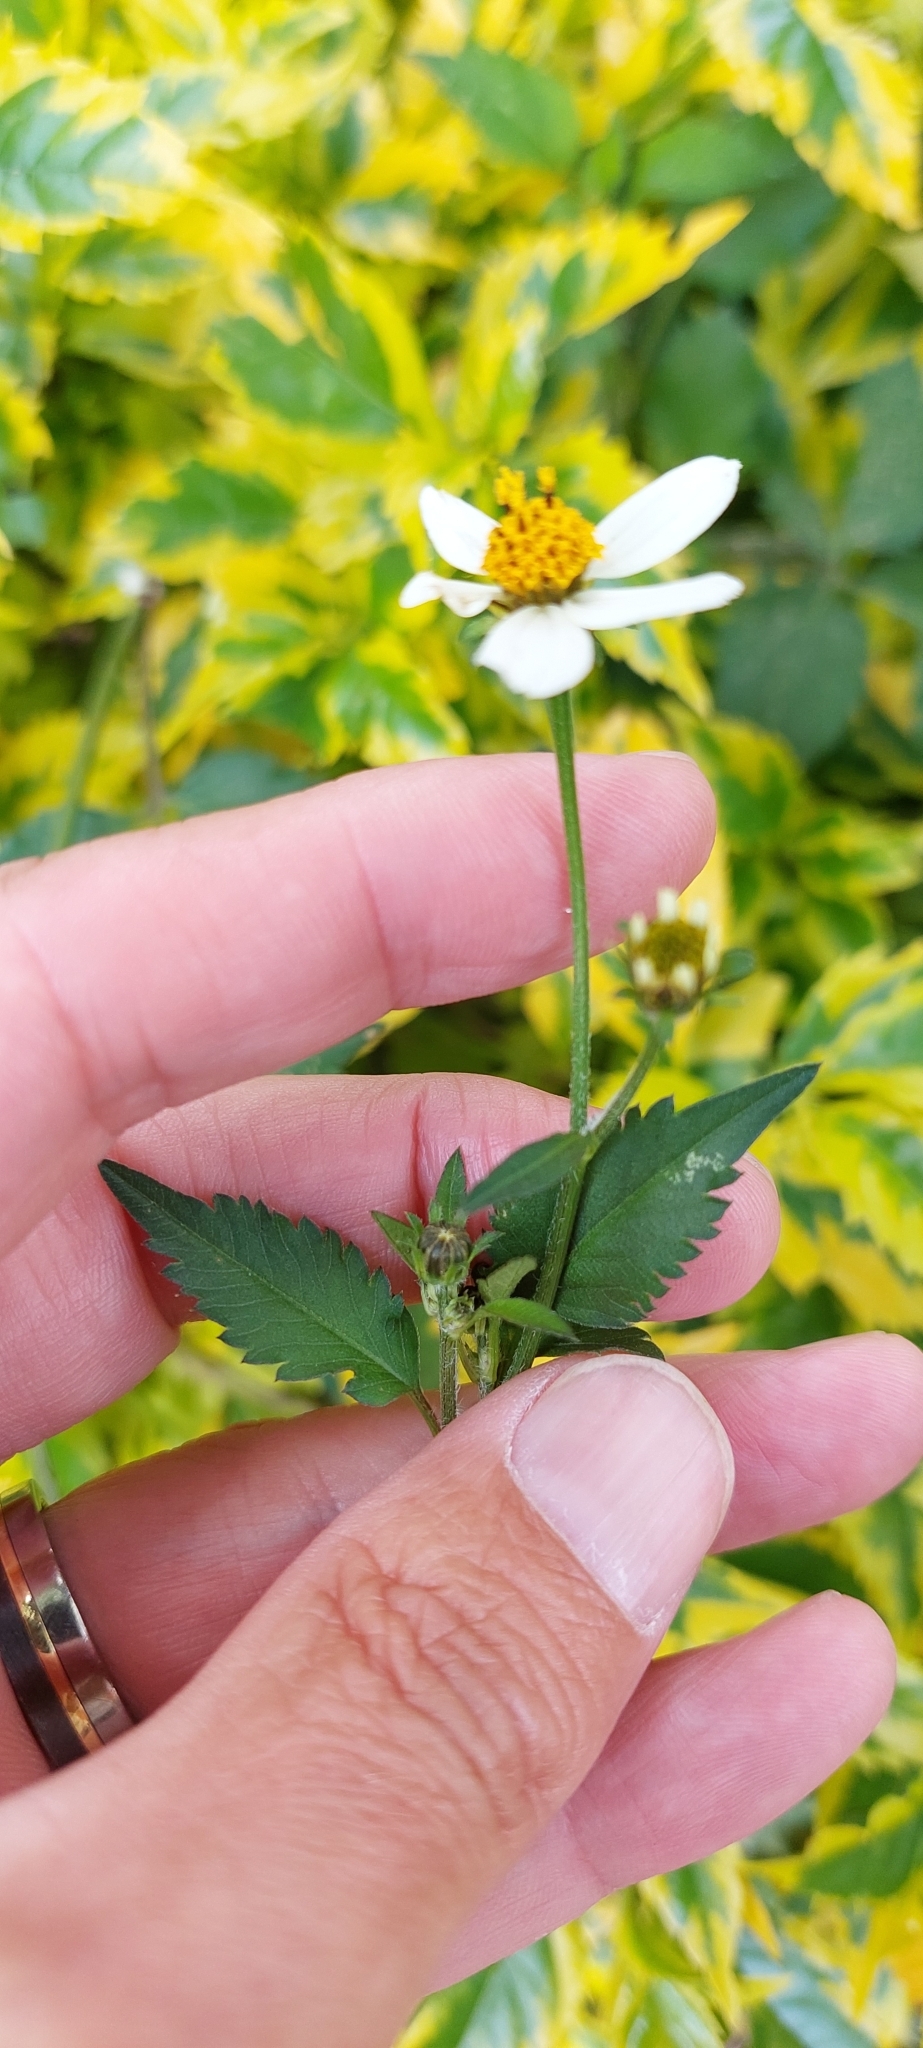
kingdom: Plantae
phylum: Tracheophyta
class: Magnoliopsida
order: Asterales
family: Asteraceae
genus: Bidens
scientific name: Bidens pilosa
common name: Black-jack
